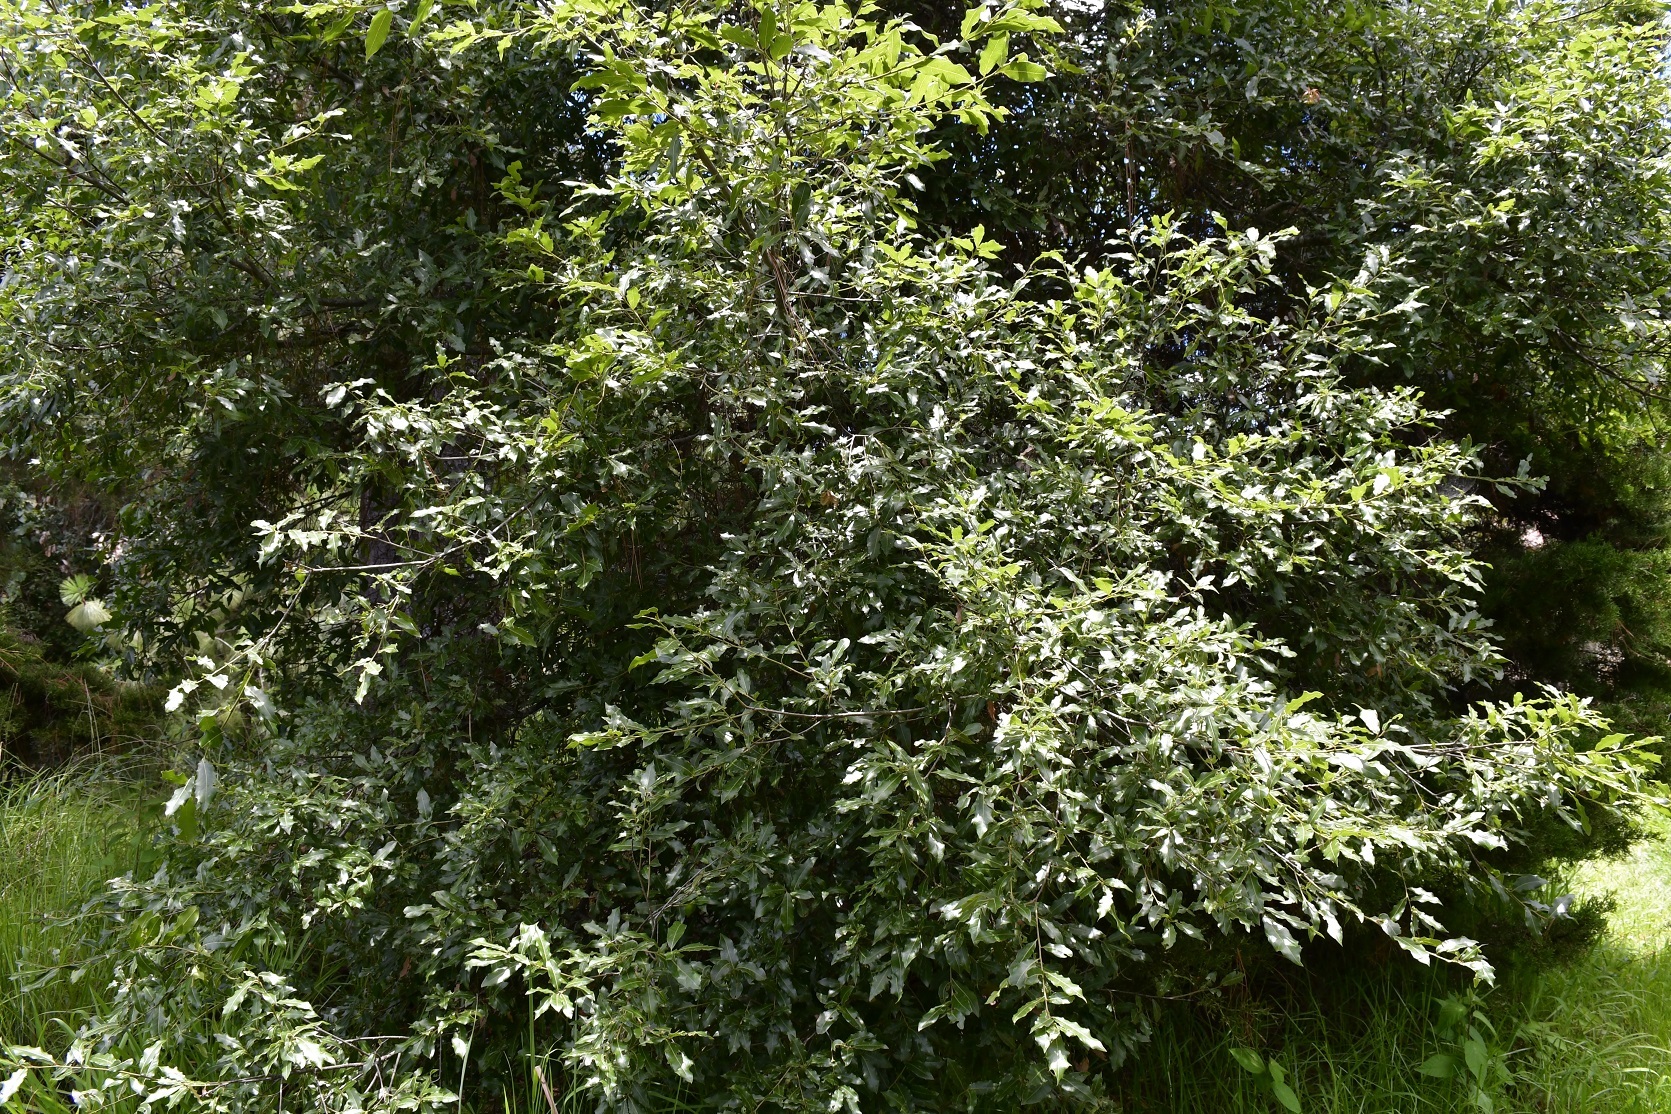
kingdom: Plantae
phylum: Tracheophyta
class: Magnoliopsida
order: Fagales
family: Fagaceae
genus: Quercus
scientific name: Quercus laurina
